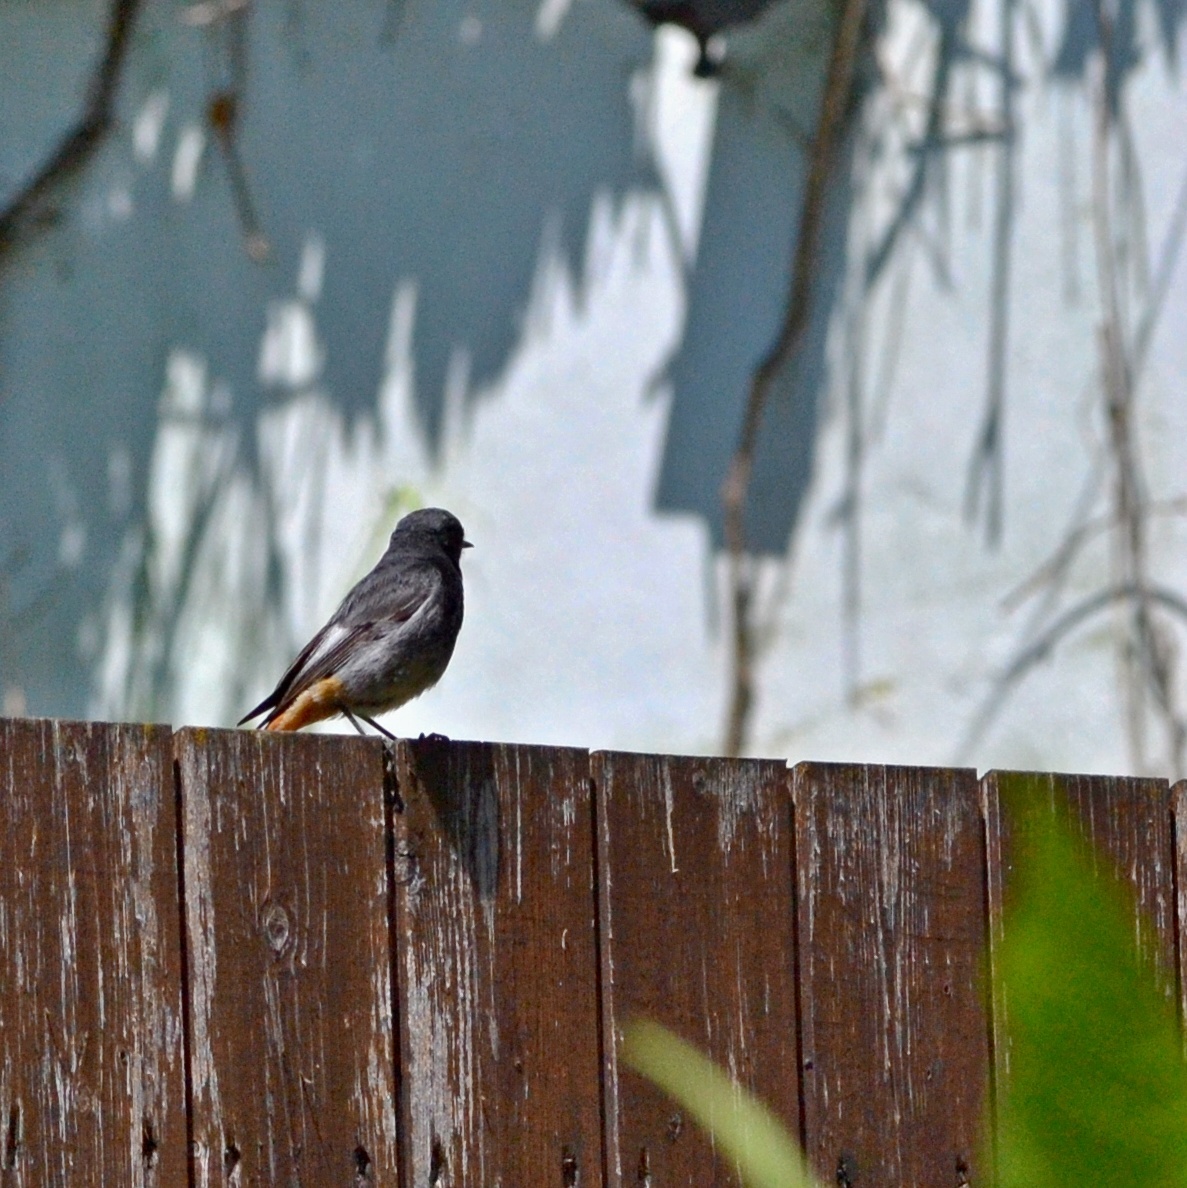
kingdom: Animalia
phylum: Chordata
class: Aves
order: Passeriformes
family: Muscicapidae
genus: Phoenicurus
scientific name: Phoenicurus ochruros
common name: Black redstart
